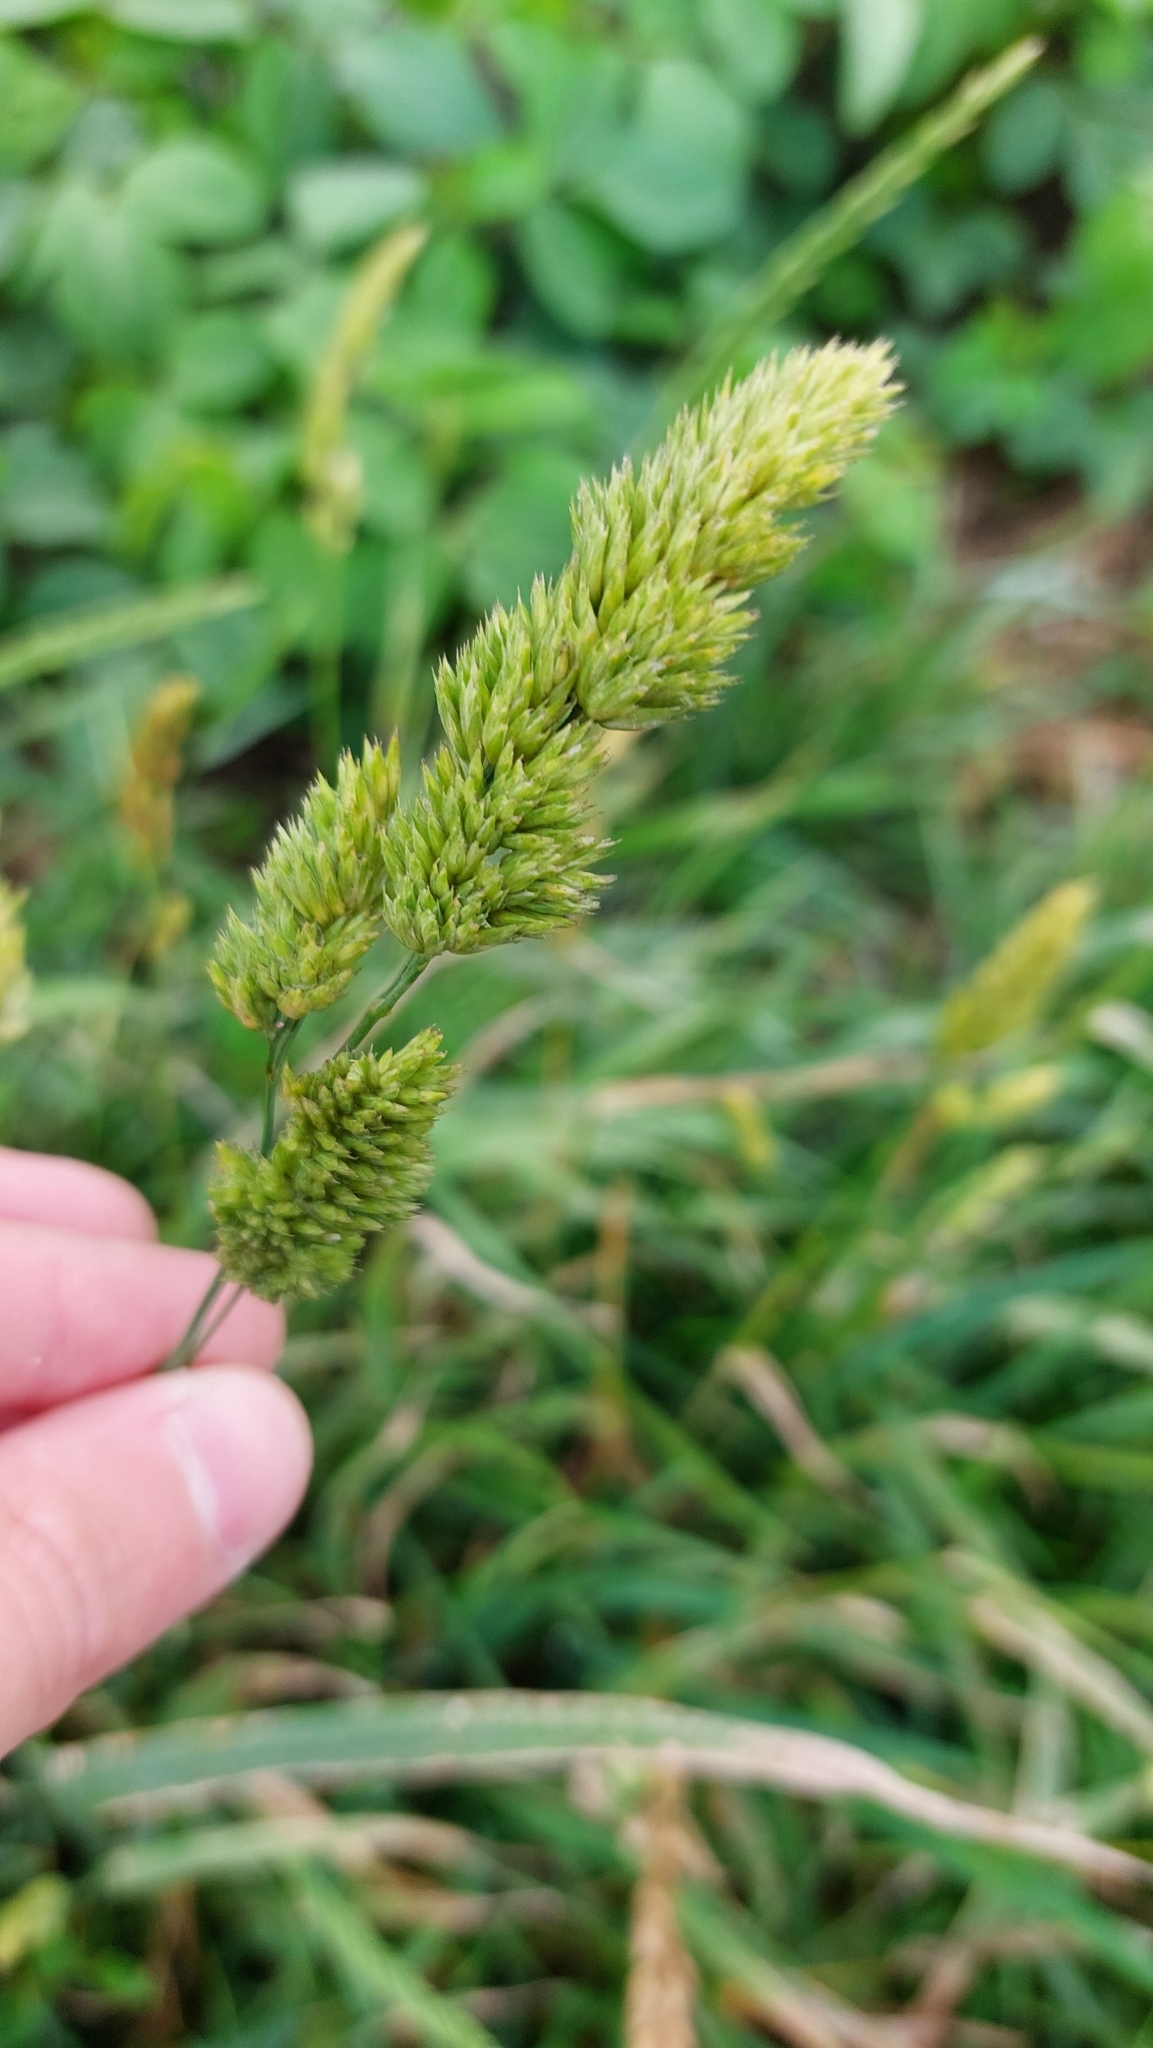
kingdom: Plantae
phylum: Tracheophyta
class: Liliopsida
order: Poales
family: Poaceae
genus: Dactylis
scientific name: Dactylis glomerata
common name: Orchardgrass
